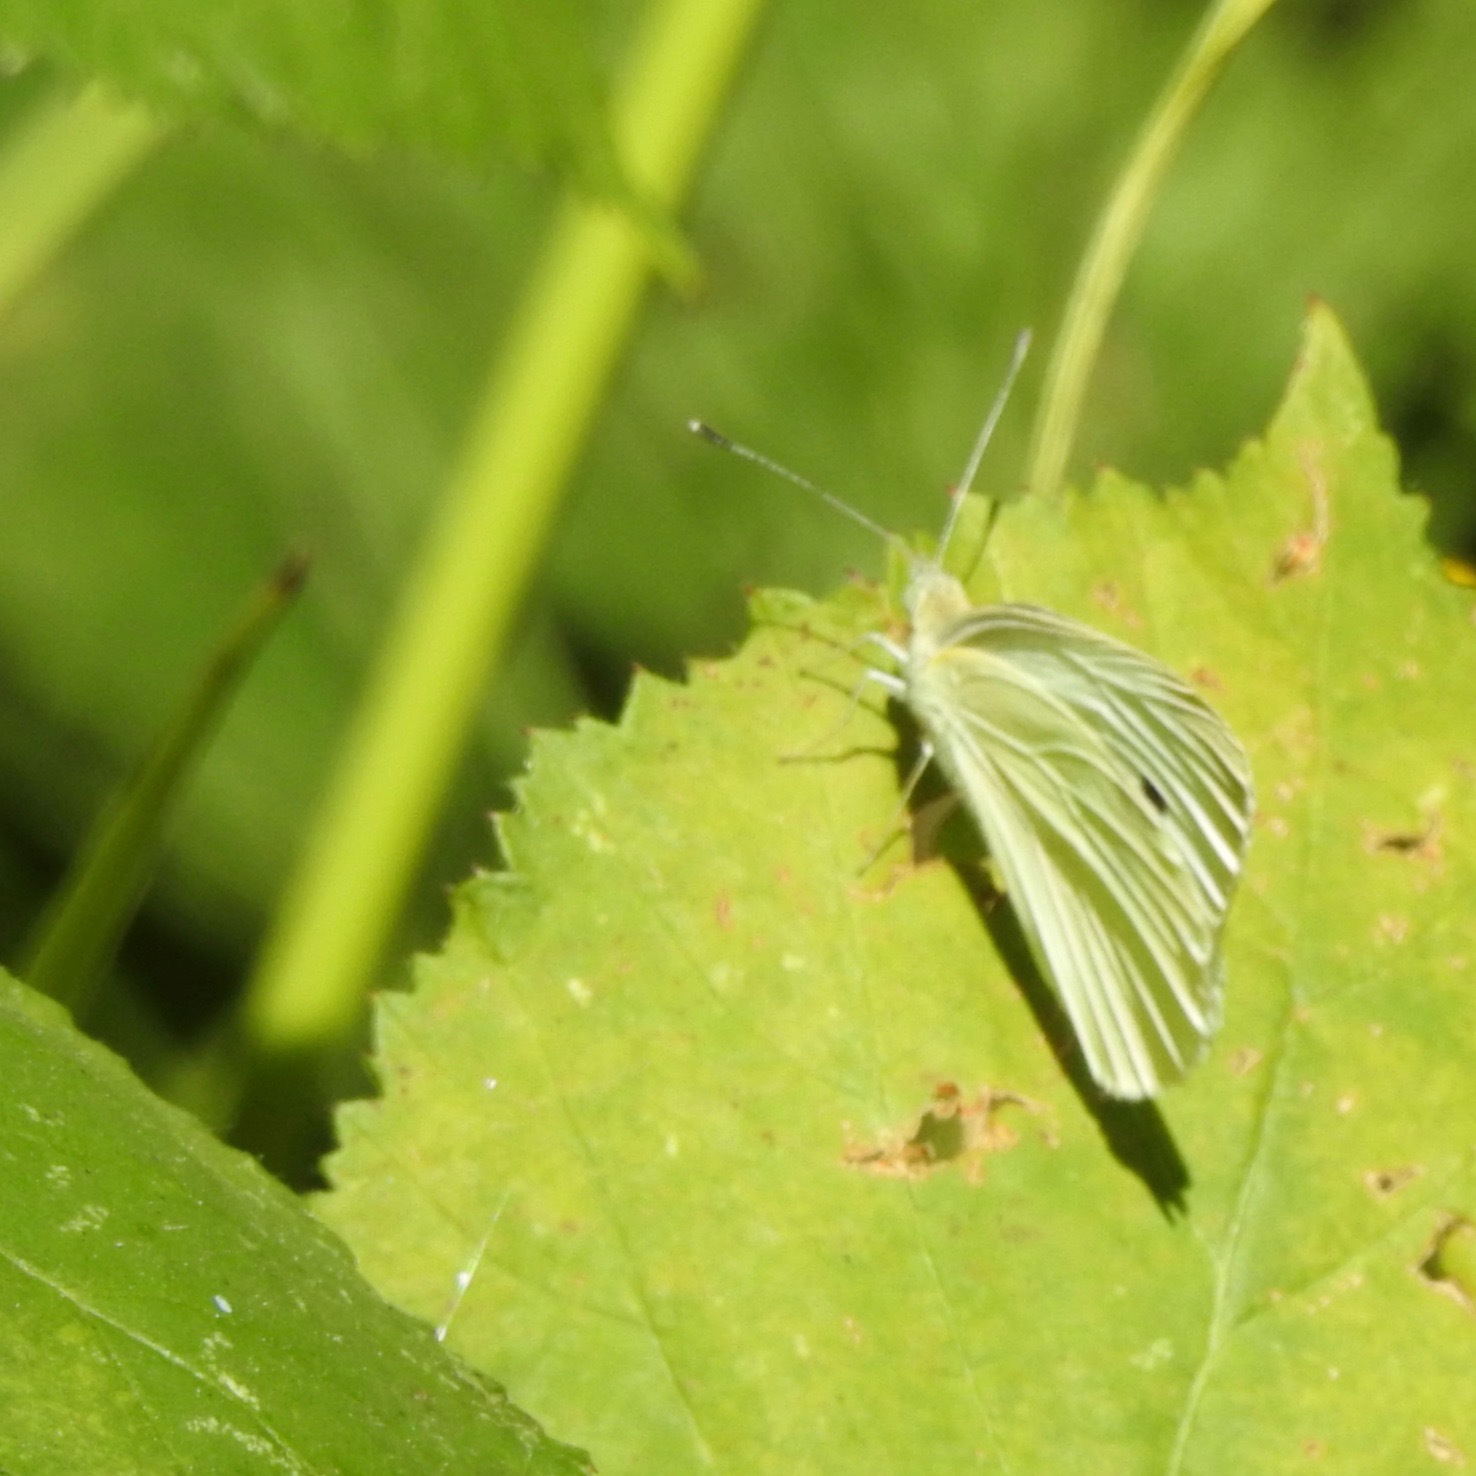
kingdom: Animalia
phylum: Arthropoda
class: Insecta
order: Lepidoptera
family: Pieridae
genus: Pieris
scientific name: Pieris rapae
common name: Small white
